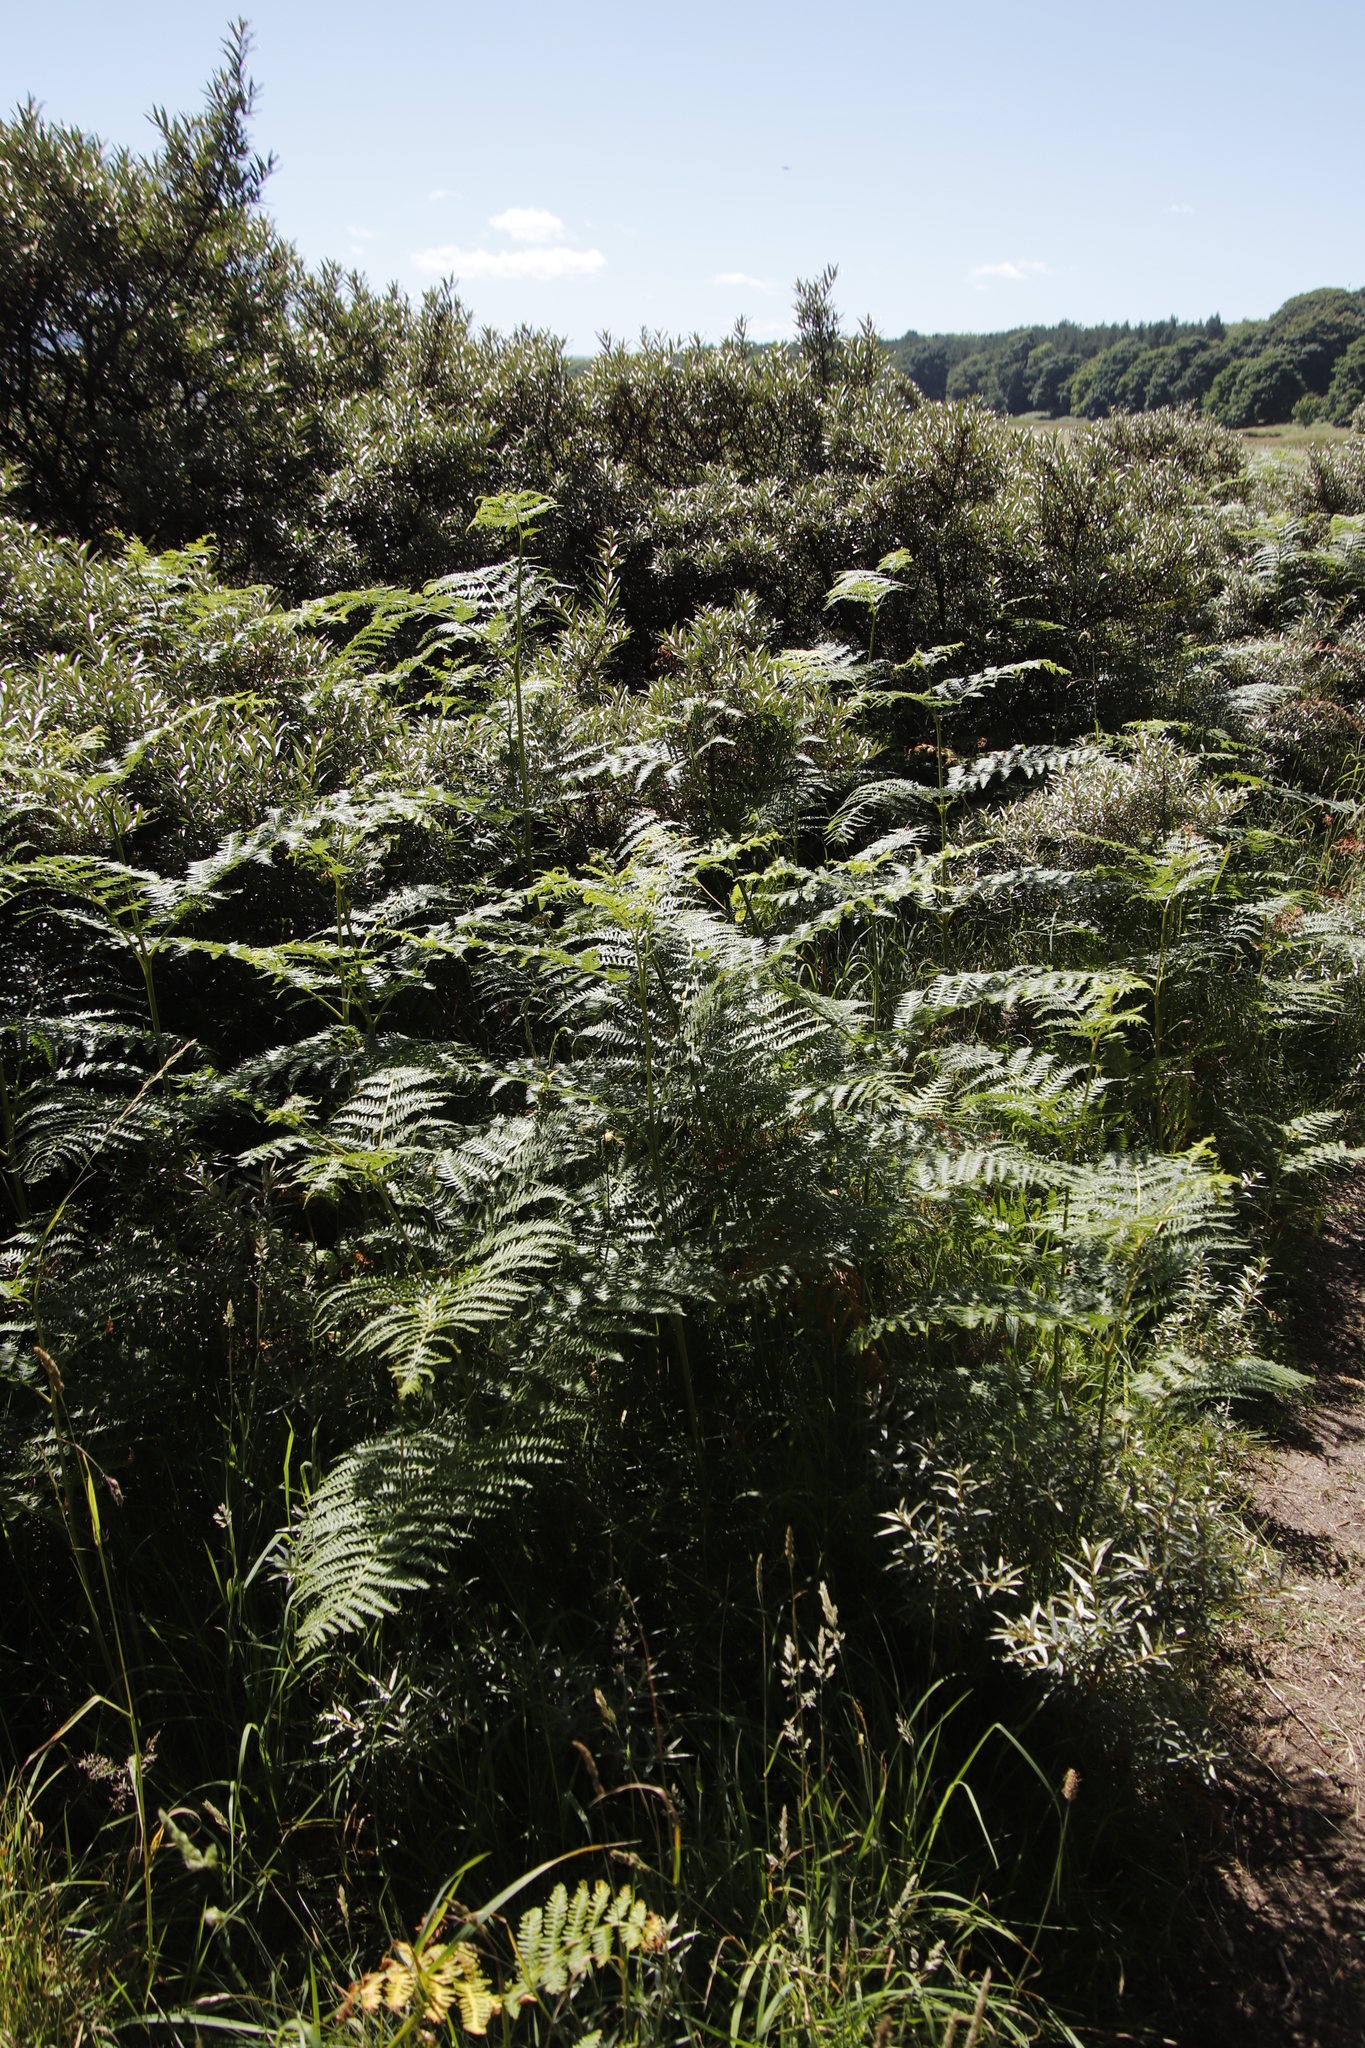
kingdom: Plantae
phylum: Tracheophyta
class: Polypodiopsida
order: Polypodiales
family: Dennstaedtiaceae
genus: Pteridium
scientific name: Pteridium aquilinum
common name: Bracken
